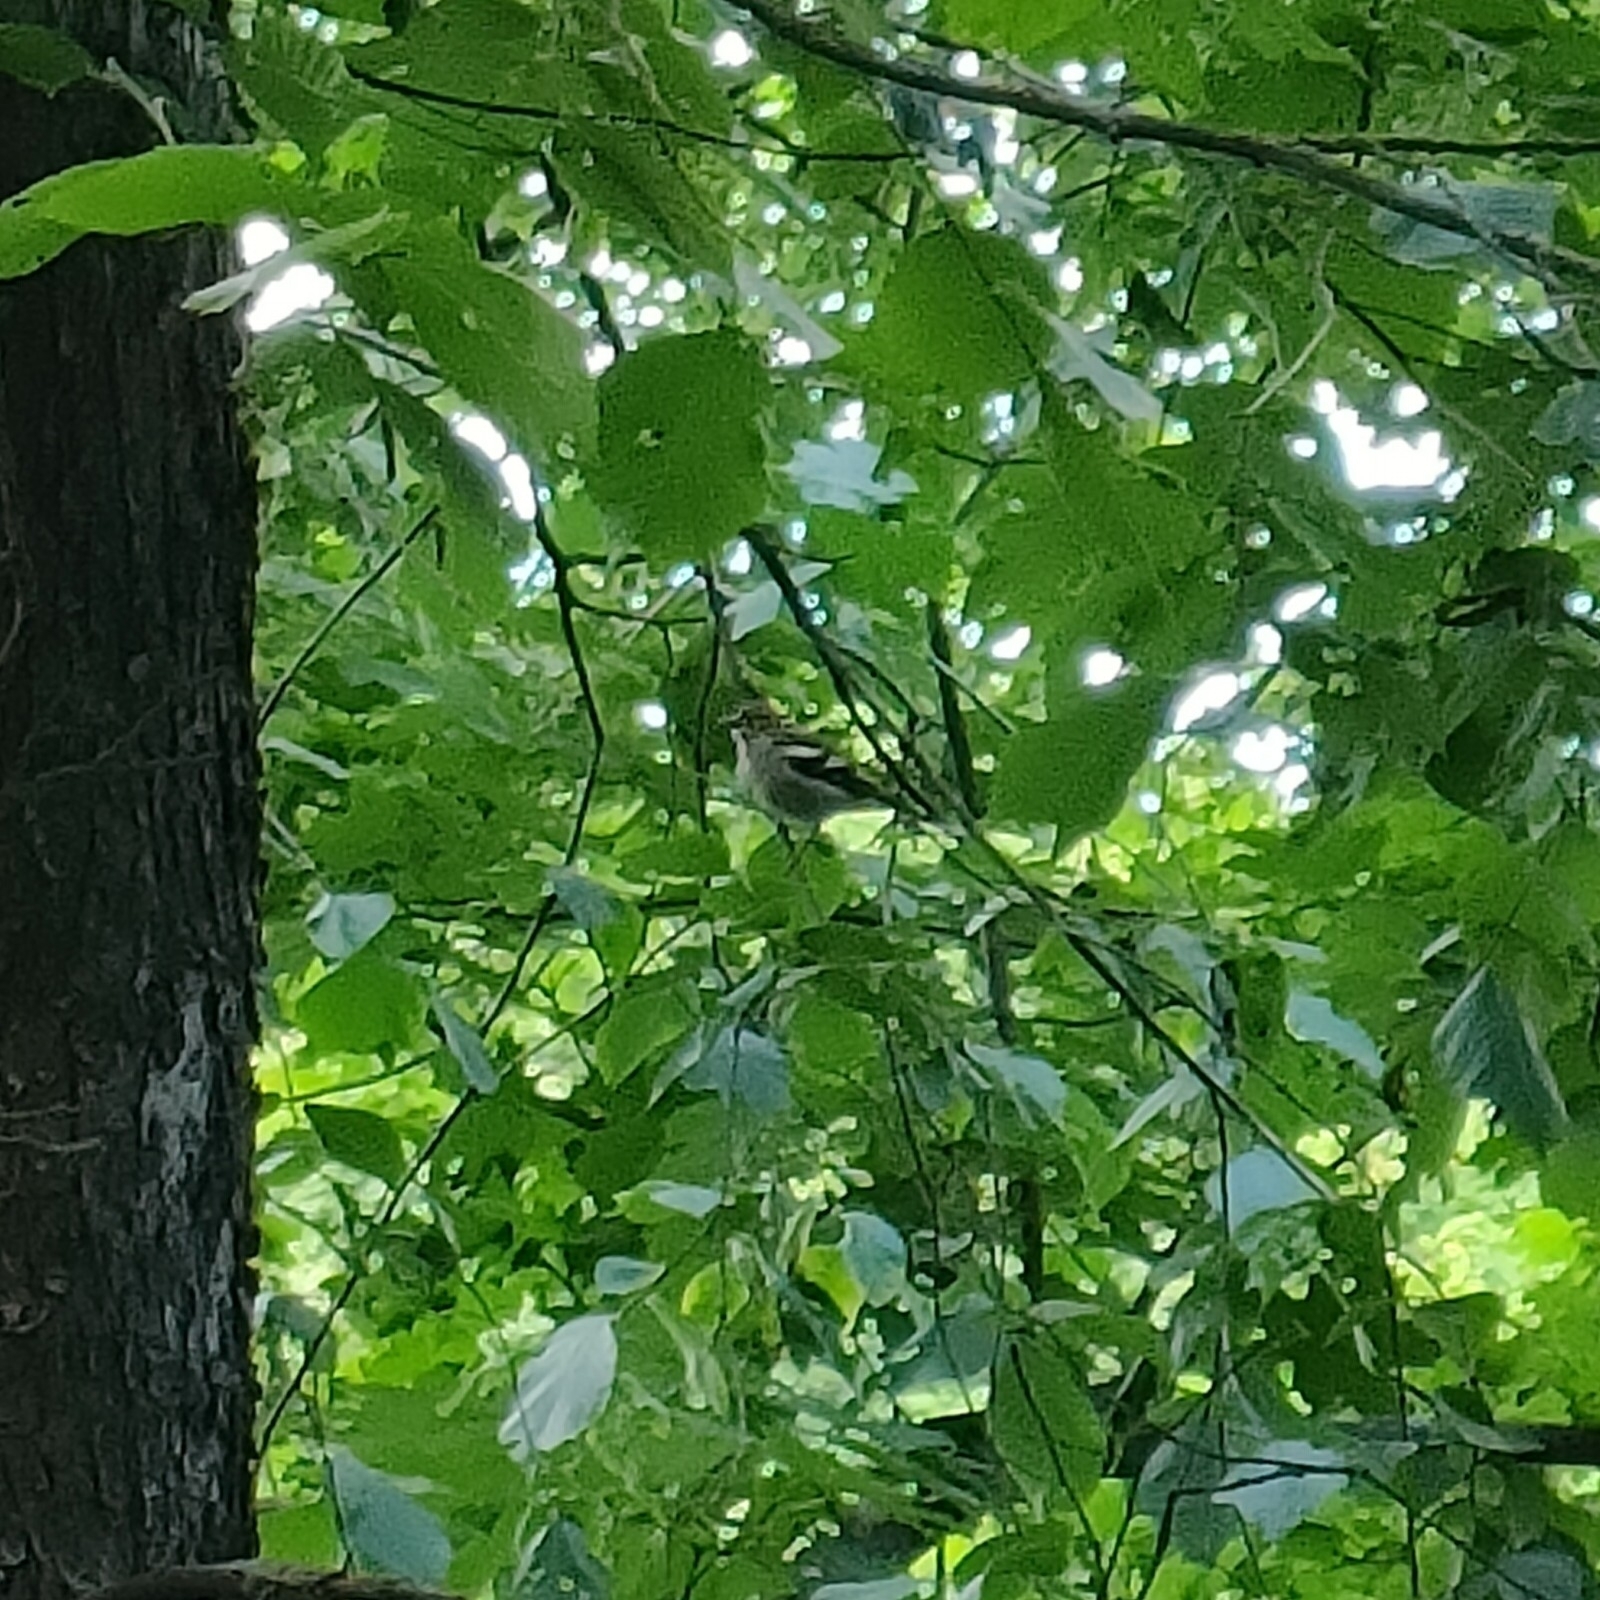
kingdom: Animalia
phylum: Chordata
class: Aves
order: Passeriformes
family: Fringillidae
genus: Fringilla
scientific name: Fringilla coelebs
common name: Common chaffinch
